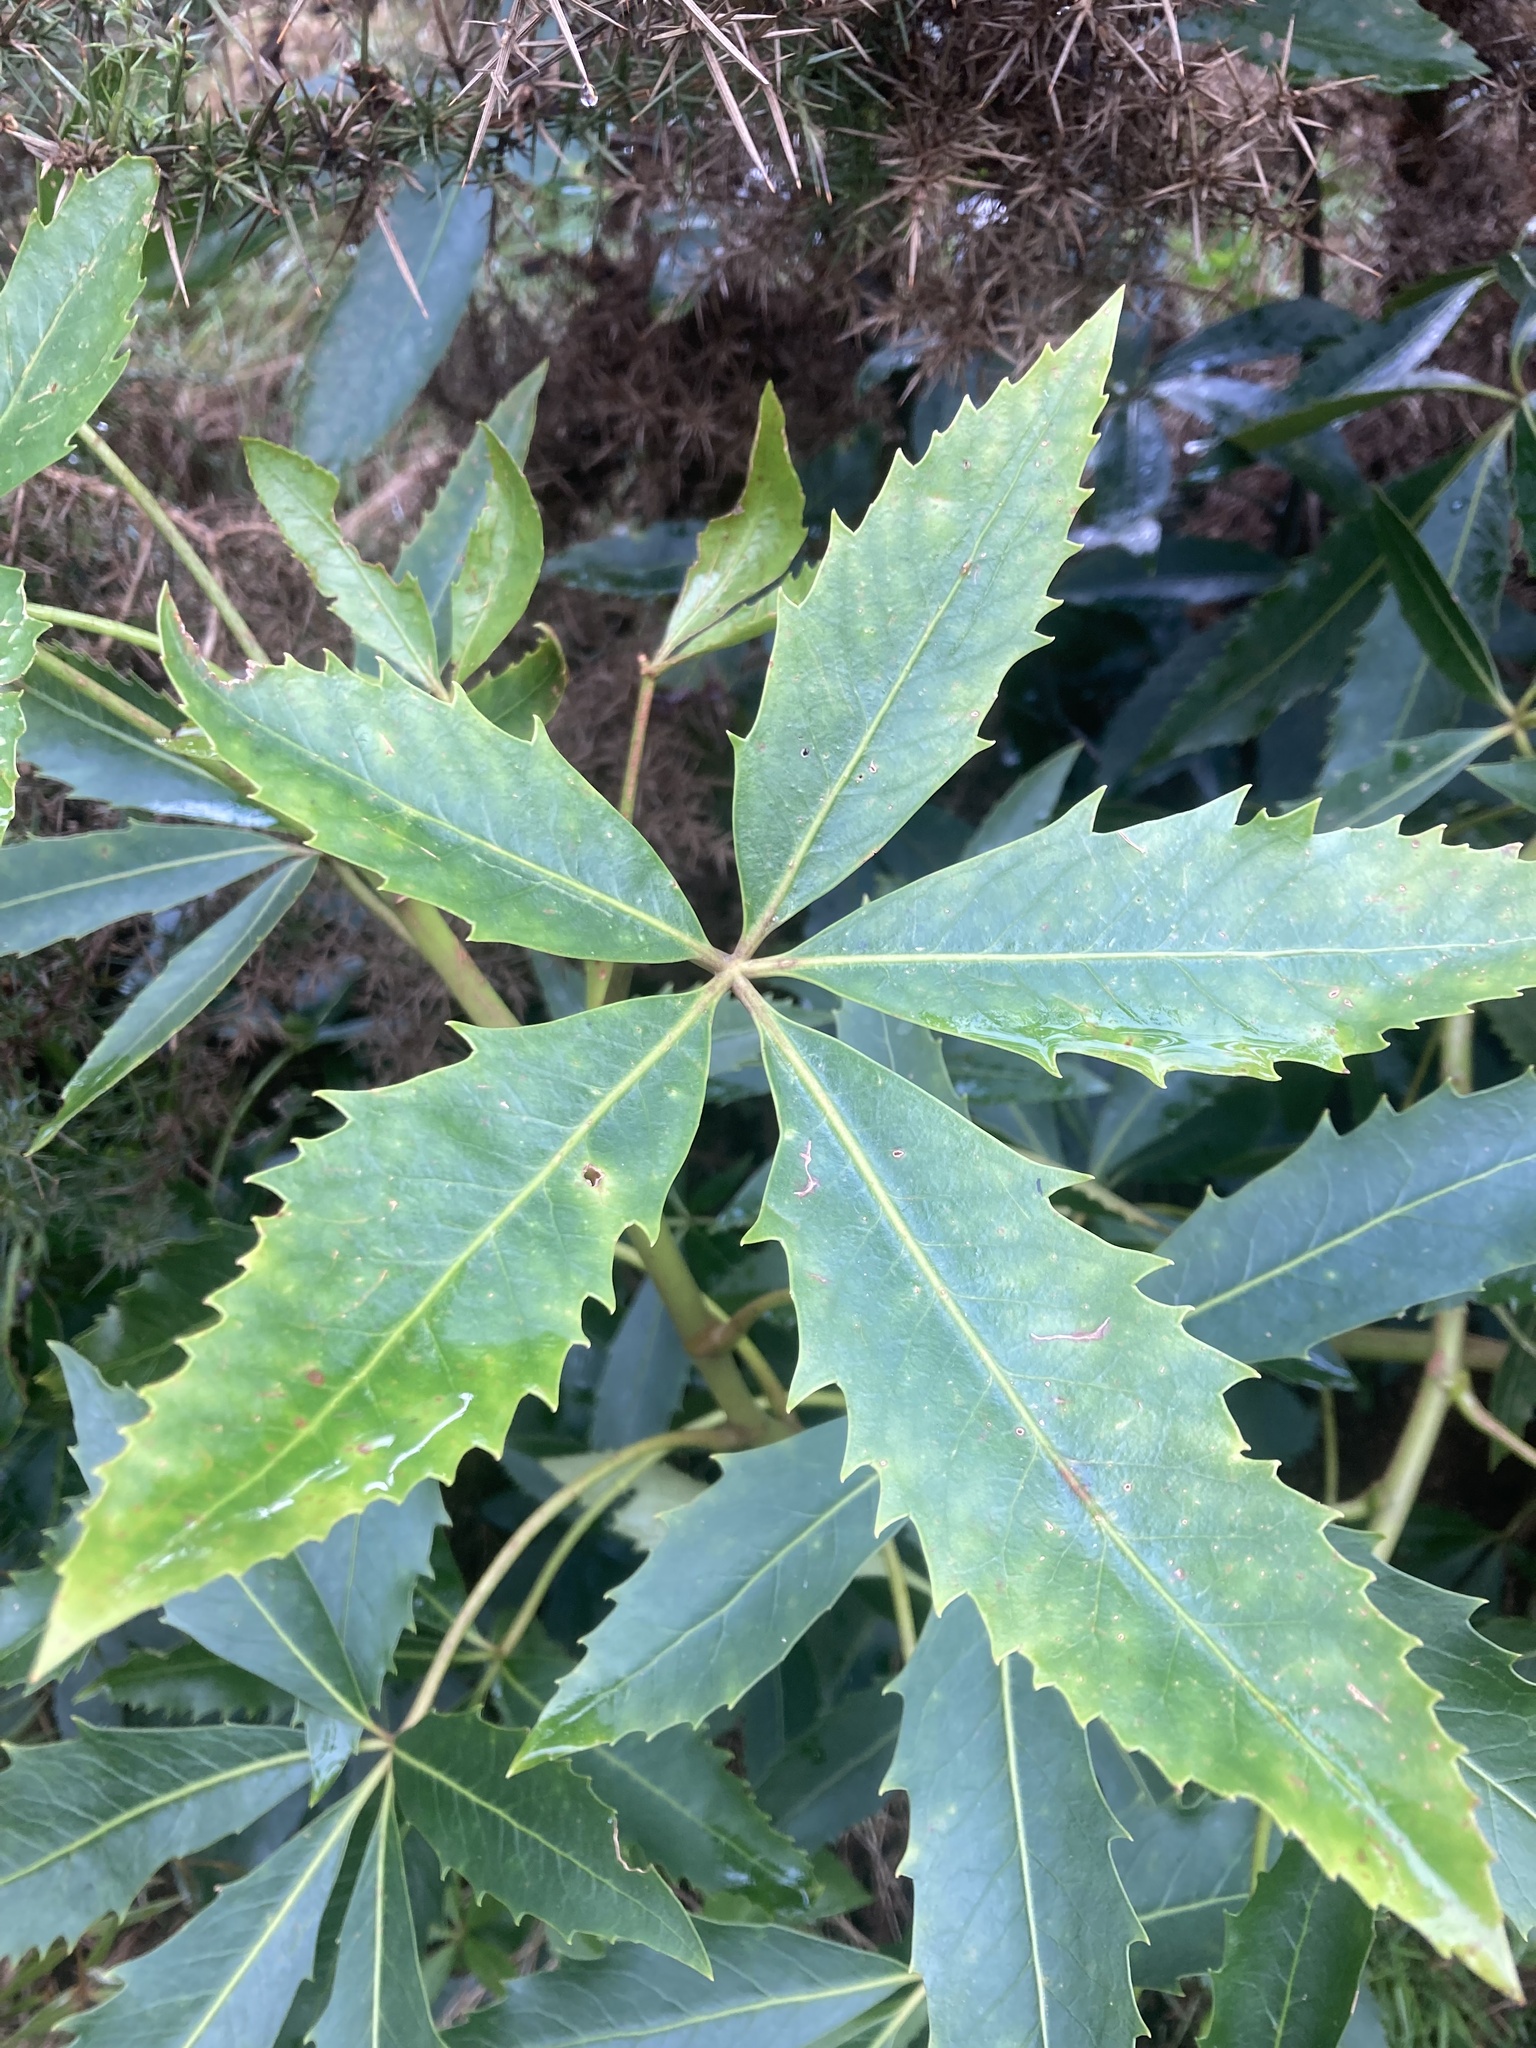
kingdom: Plantae
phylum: Tracheophyta
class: Magnoliopsida
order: Apiales
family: Araliaceae
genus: Neopanax
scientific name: Neopanax colensoi
